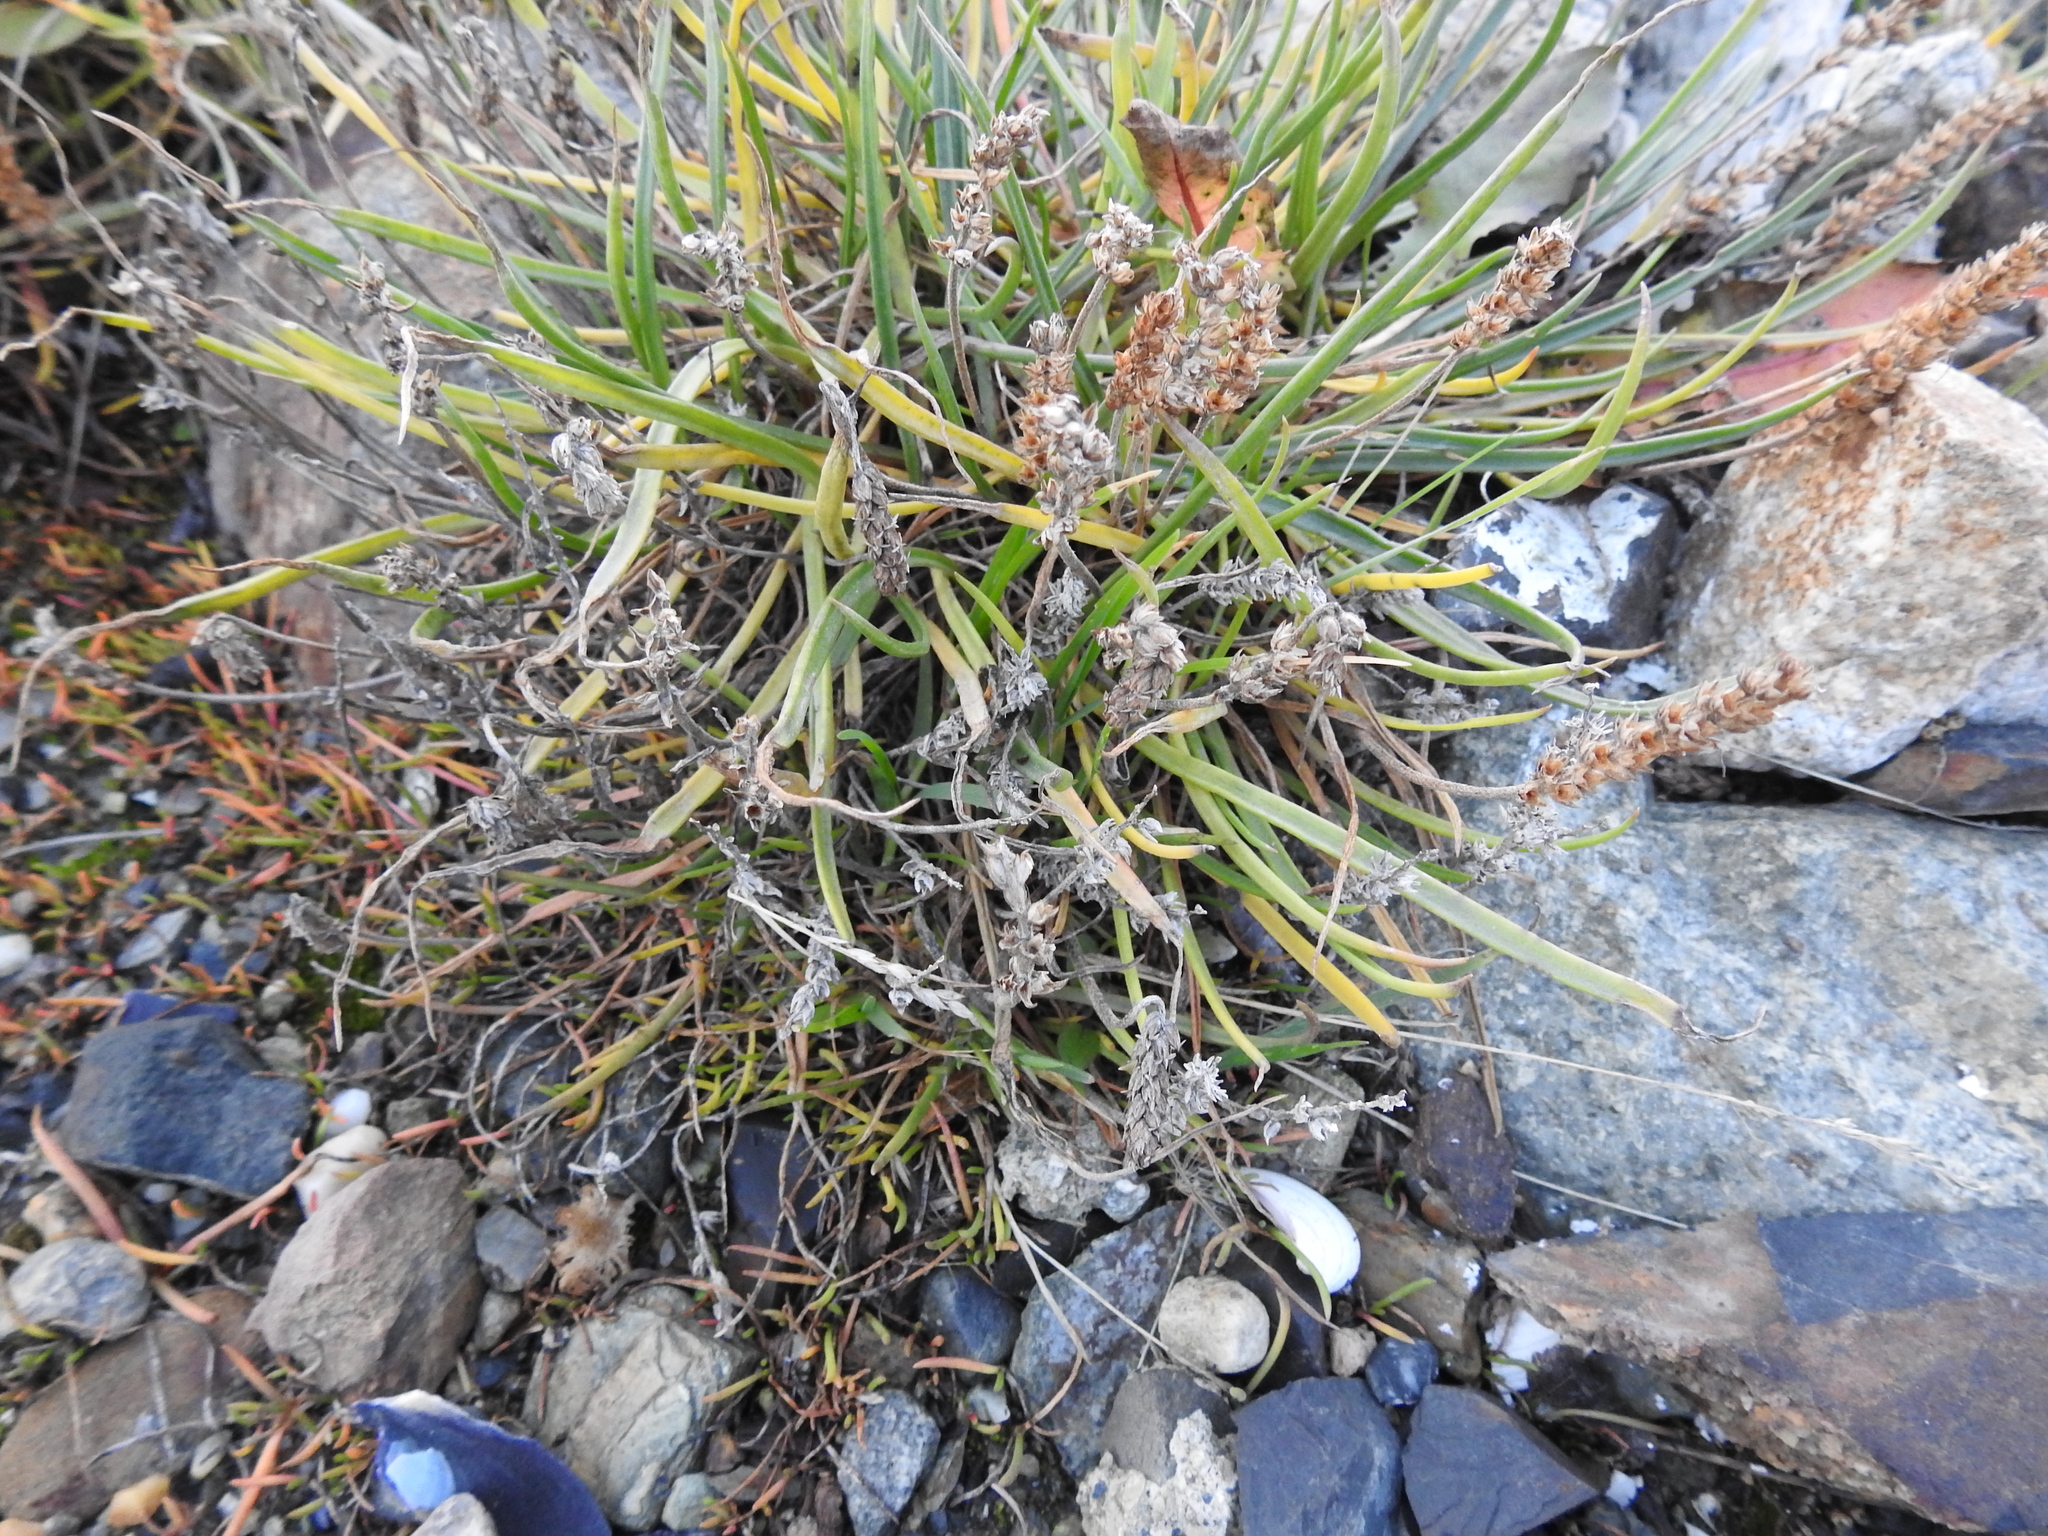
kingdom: Plantae
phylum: Tracheophyta
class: Magnoliopsida
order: Lamiales
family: Plantaginaceae
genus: Plantago
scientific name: Plantago maritima
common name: Sea plantain
